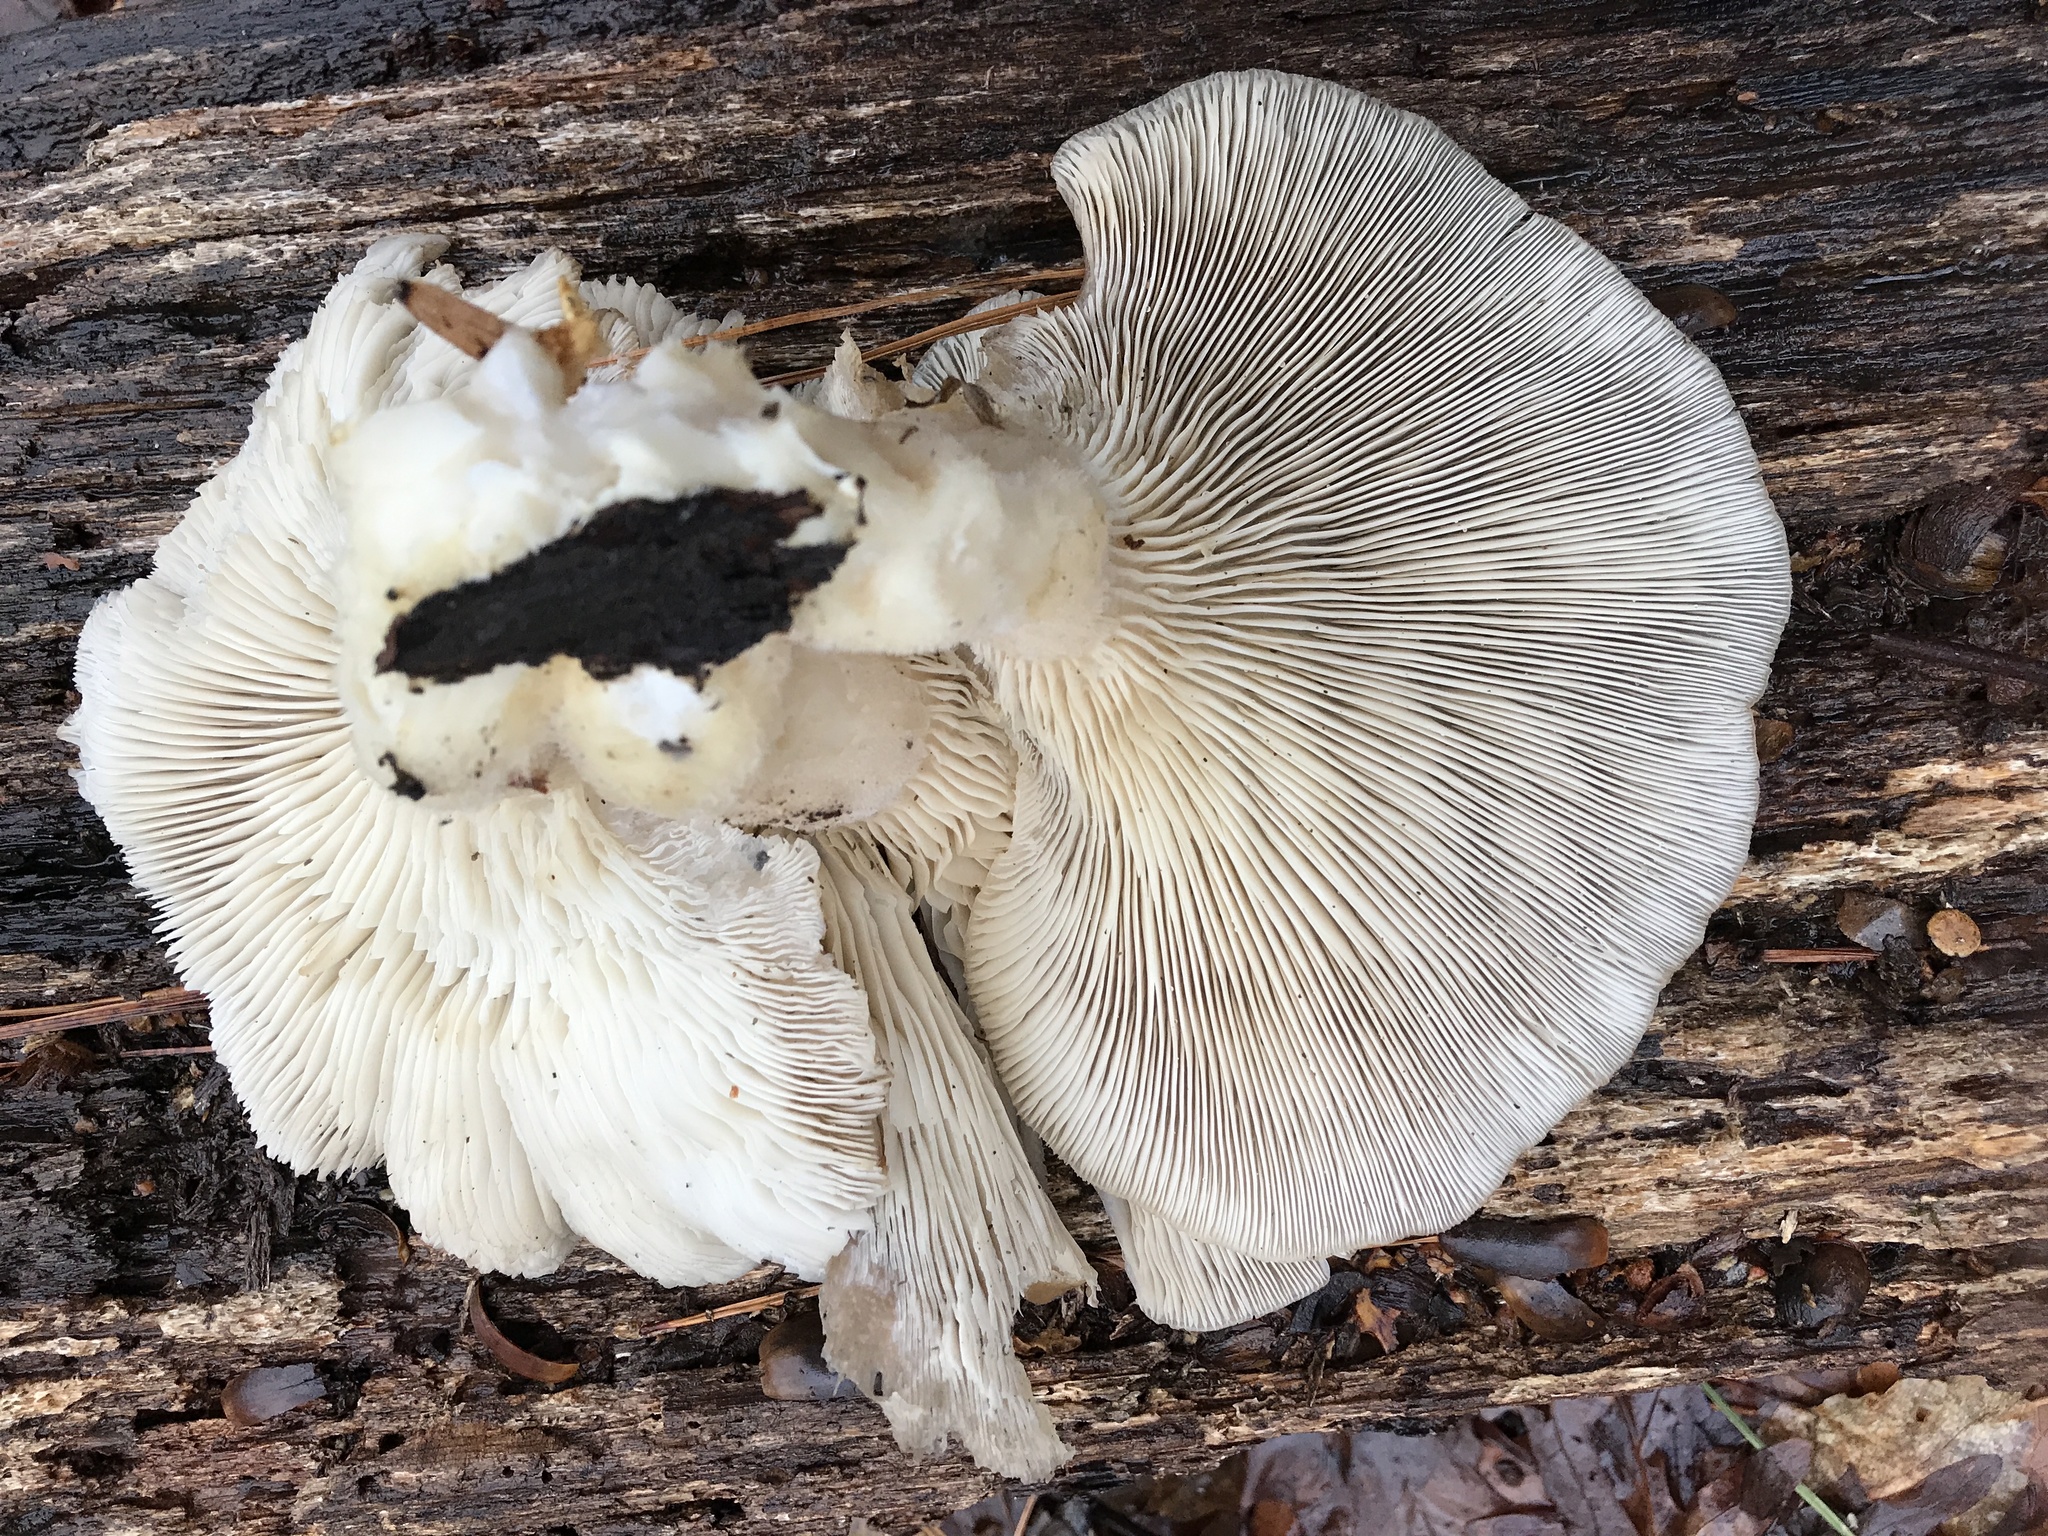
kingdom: Fungi
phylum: Basidiomycota
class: Agaricomycetes
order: Agaricales
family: Pleurotaceae
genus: Pleurotus
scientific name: Pleurotus ostreatus
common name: Oyster mushroom
